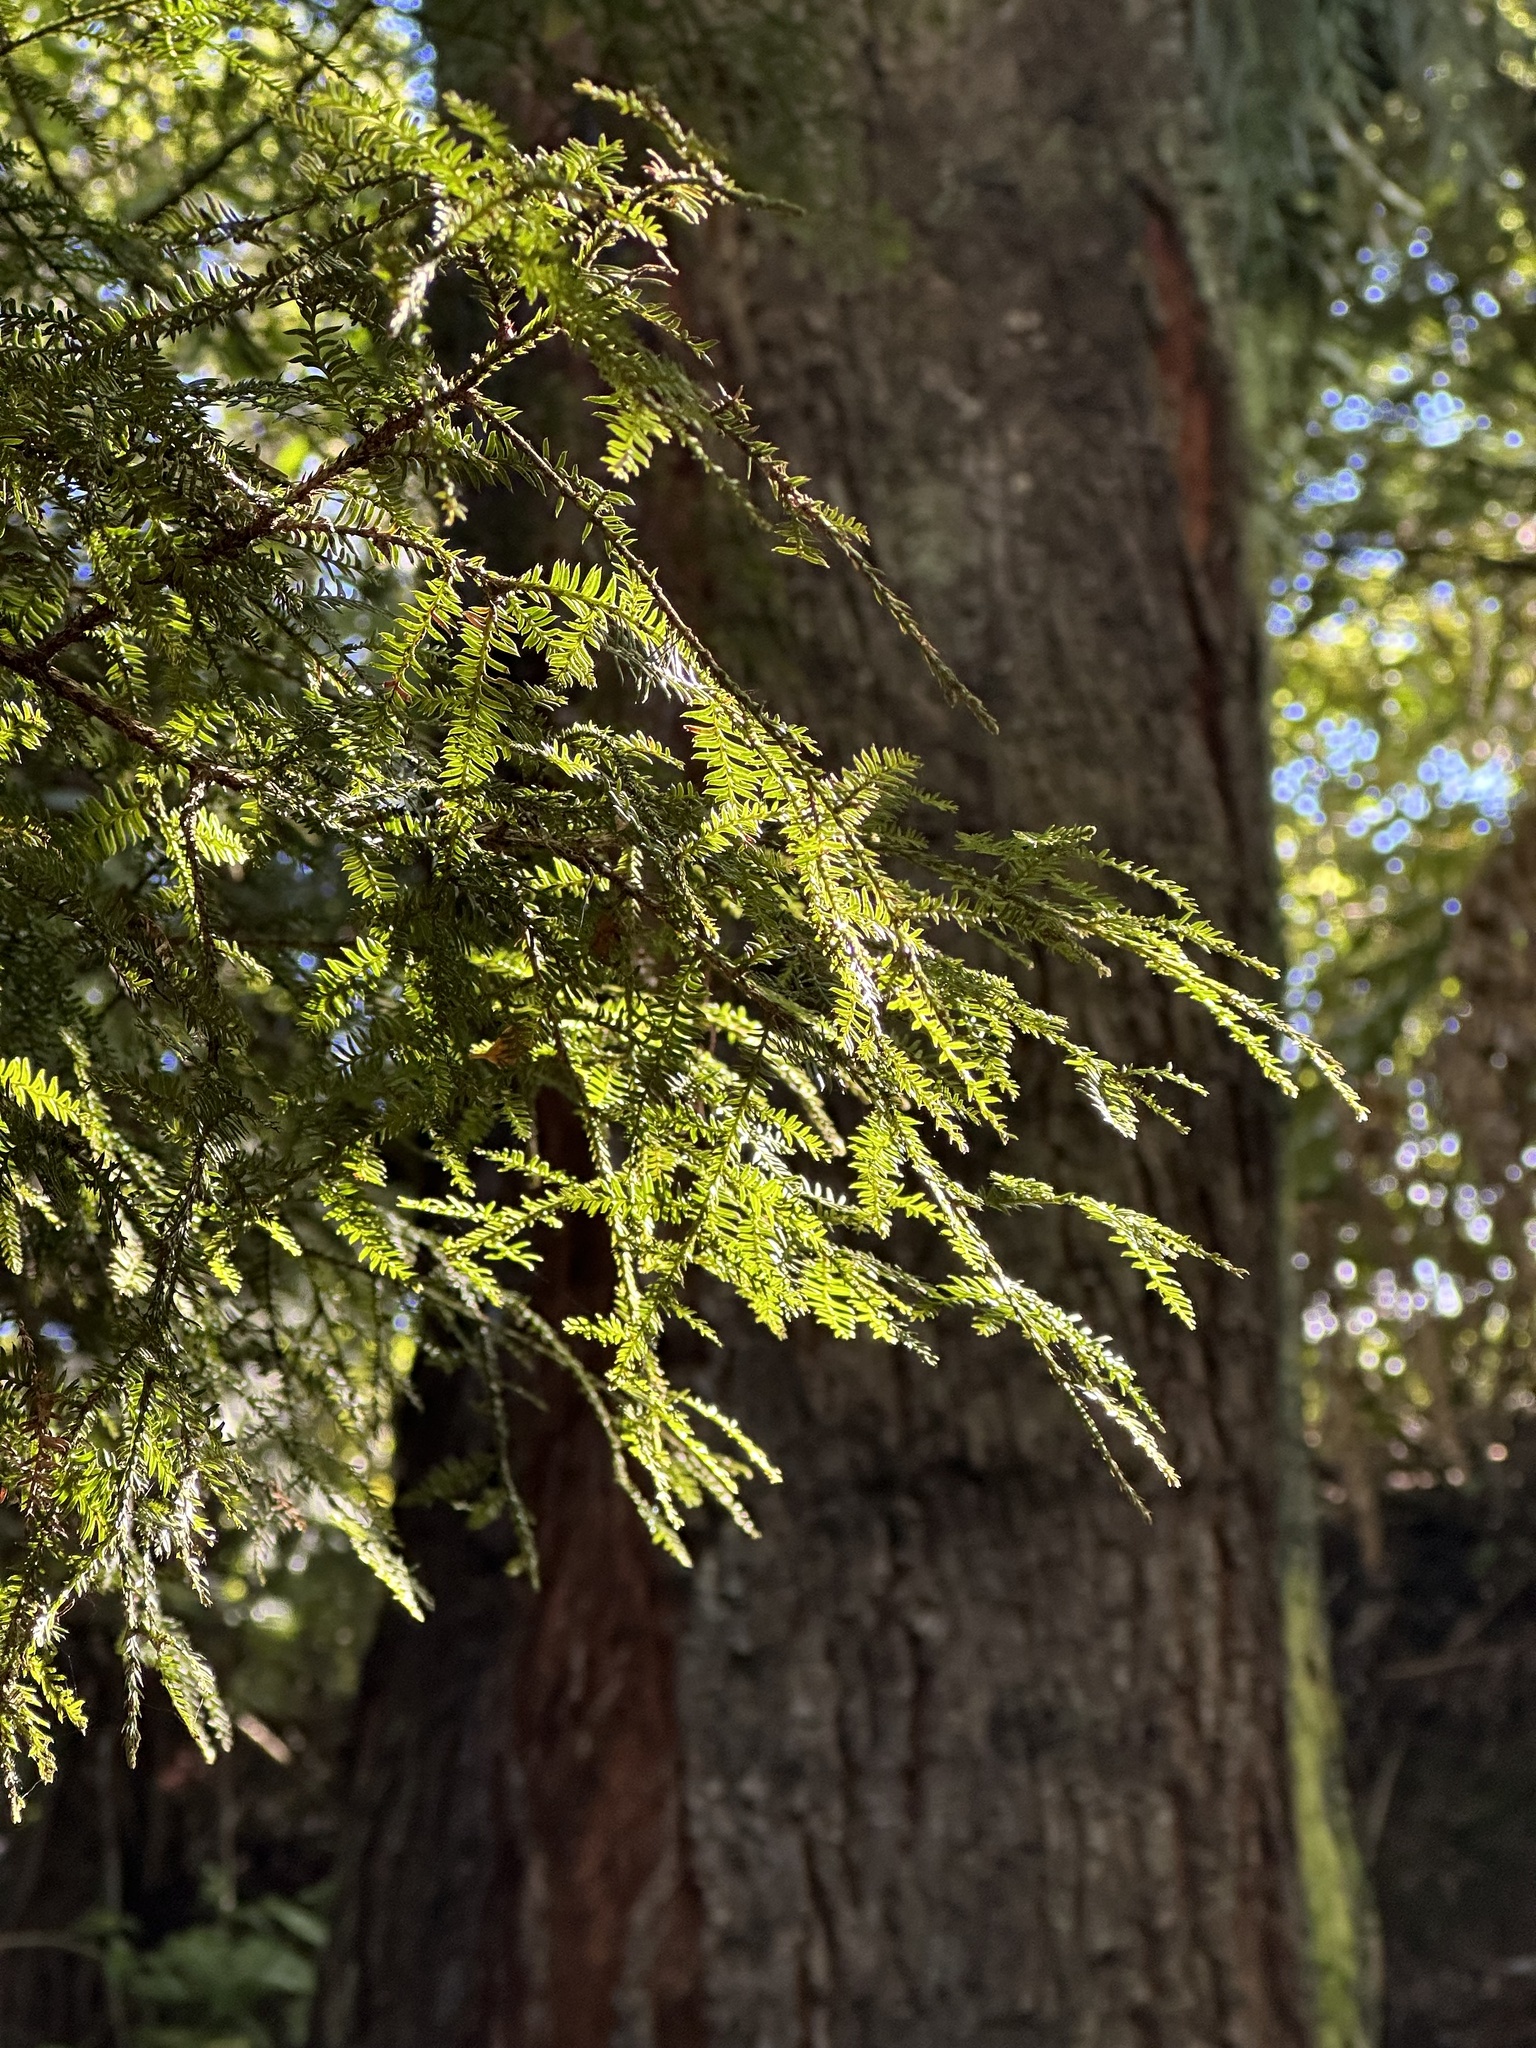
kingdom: Plantae
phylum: Tracheophyta
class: Pinopsida
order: Pinales
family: Podocarpaceae
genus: Dacrycarpus
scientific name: Dacrycarpus dacrydioides
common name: White pine
